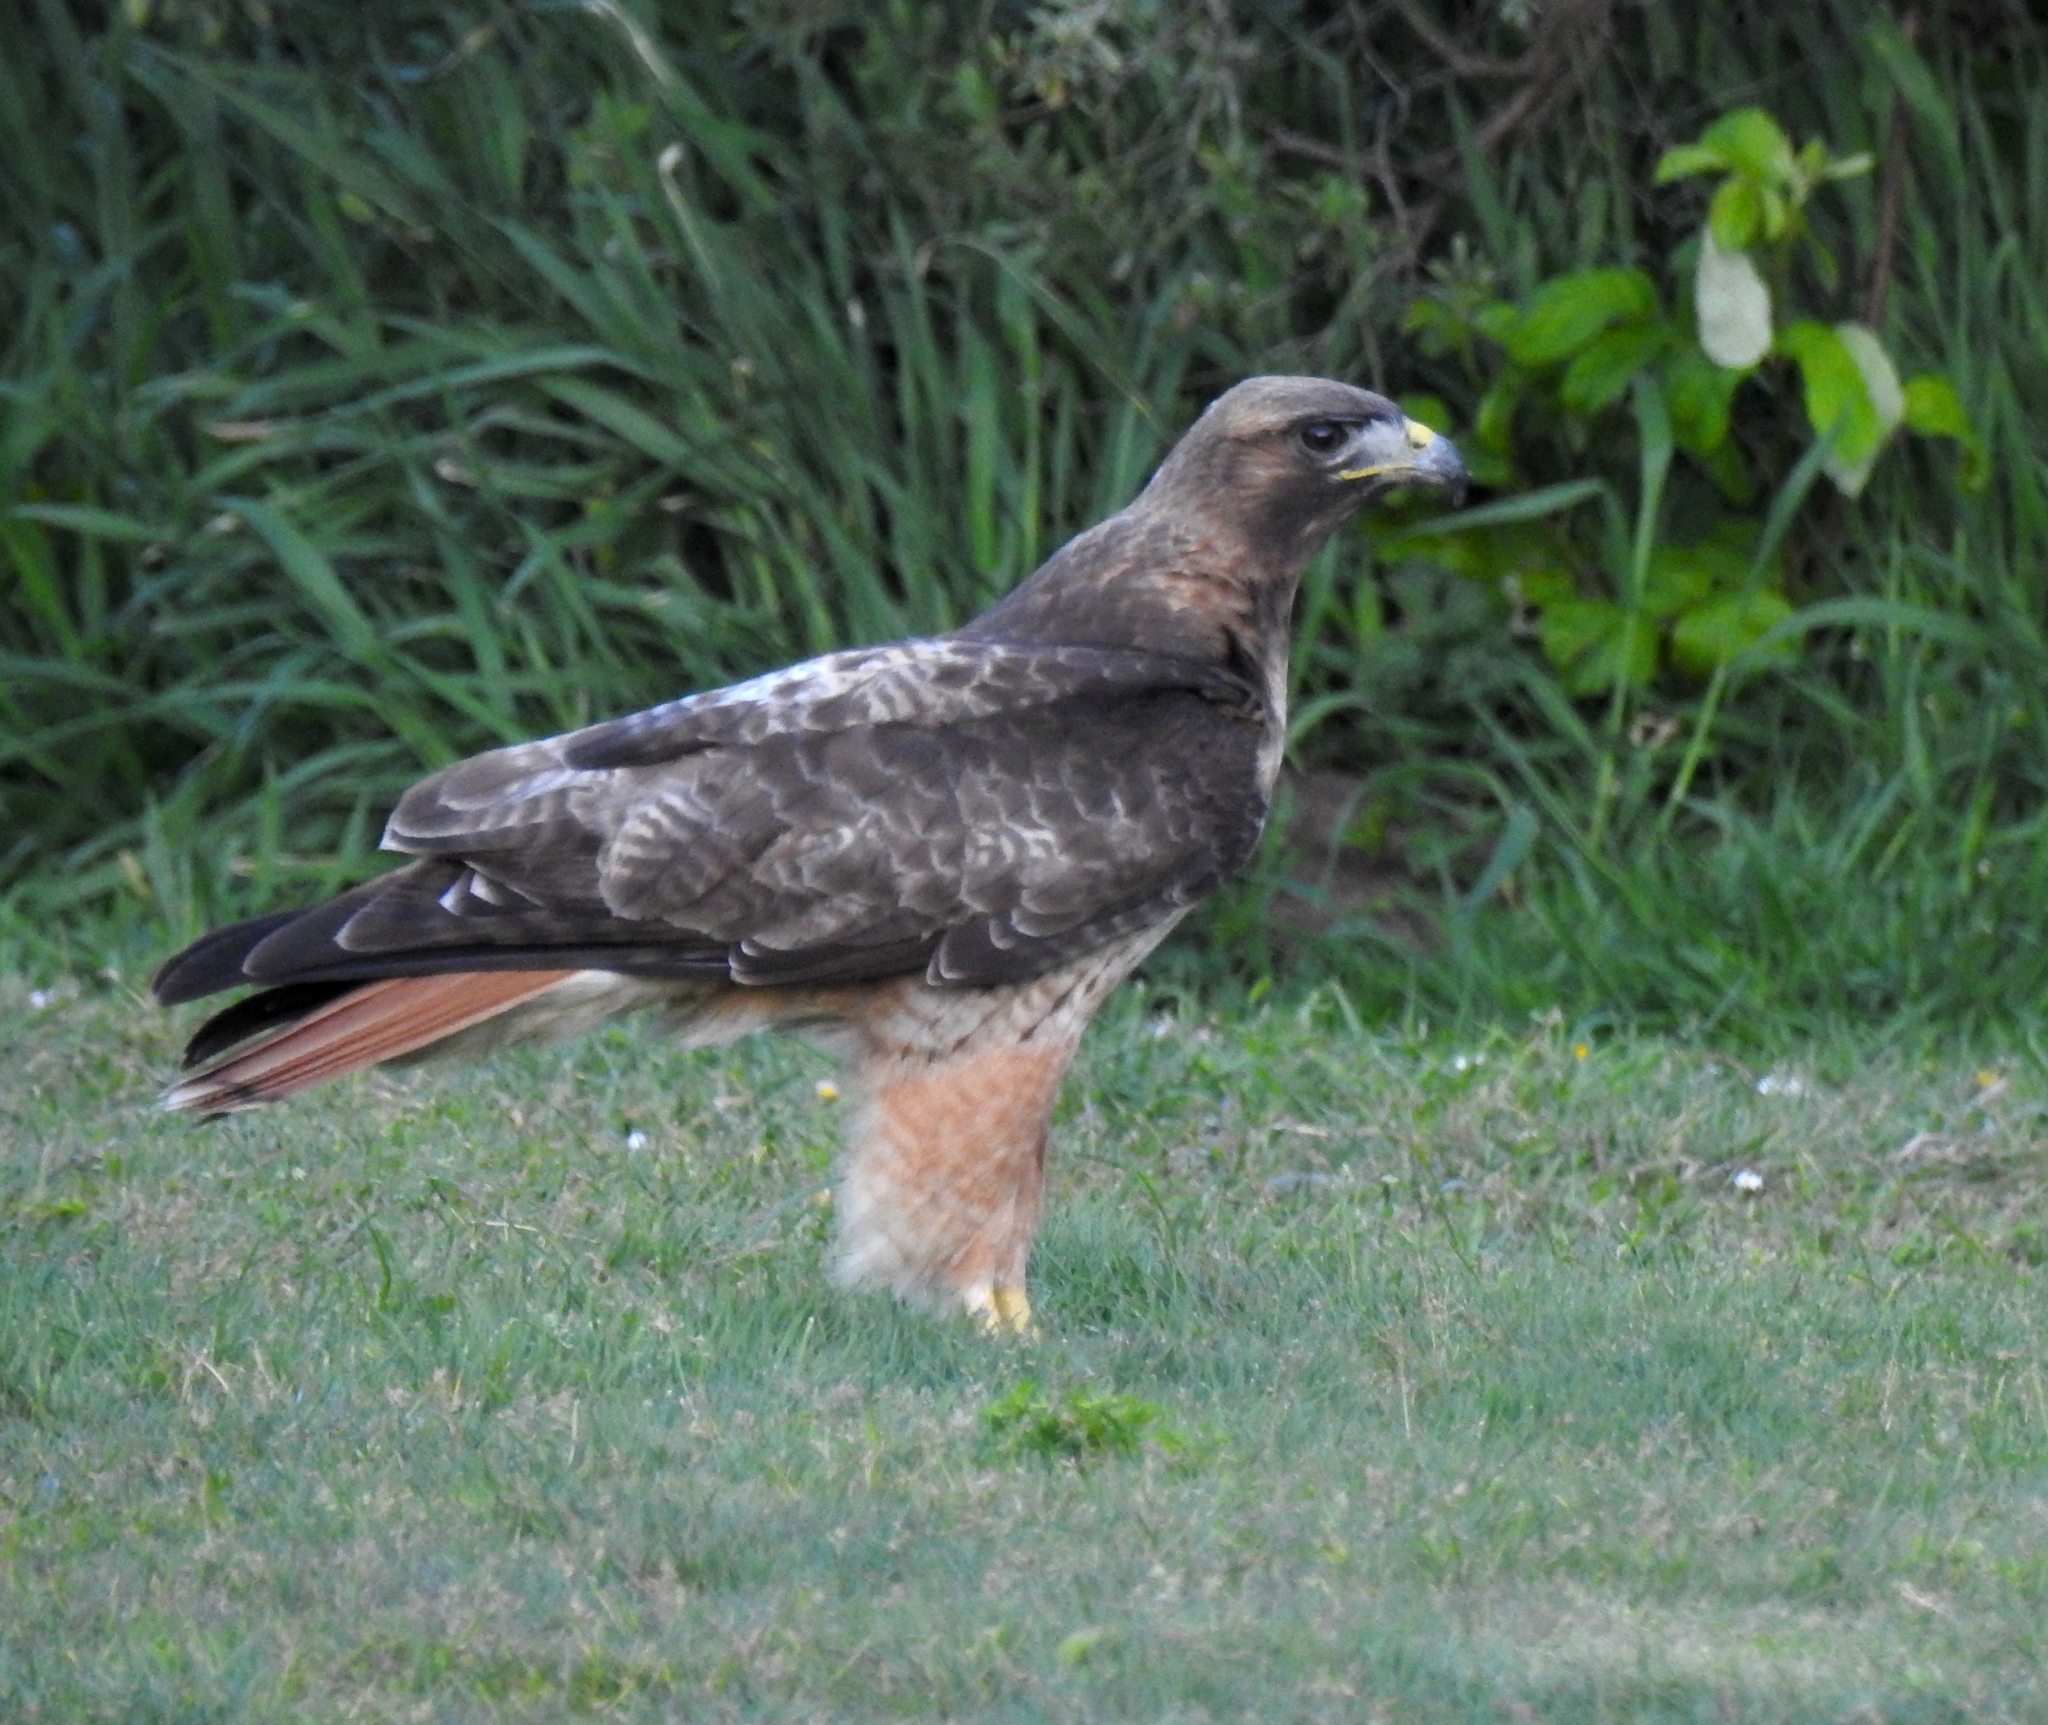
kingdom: Animalia
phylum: Chordata
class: Aves
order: Accipitriformes
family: Accipitridae
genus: Buteo
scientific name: Buteo jamaicensis
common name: Red-tailed hawk
